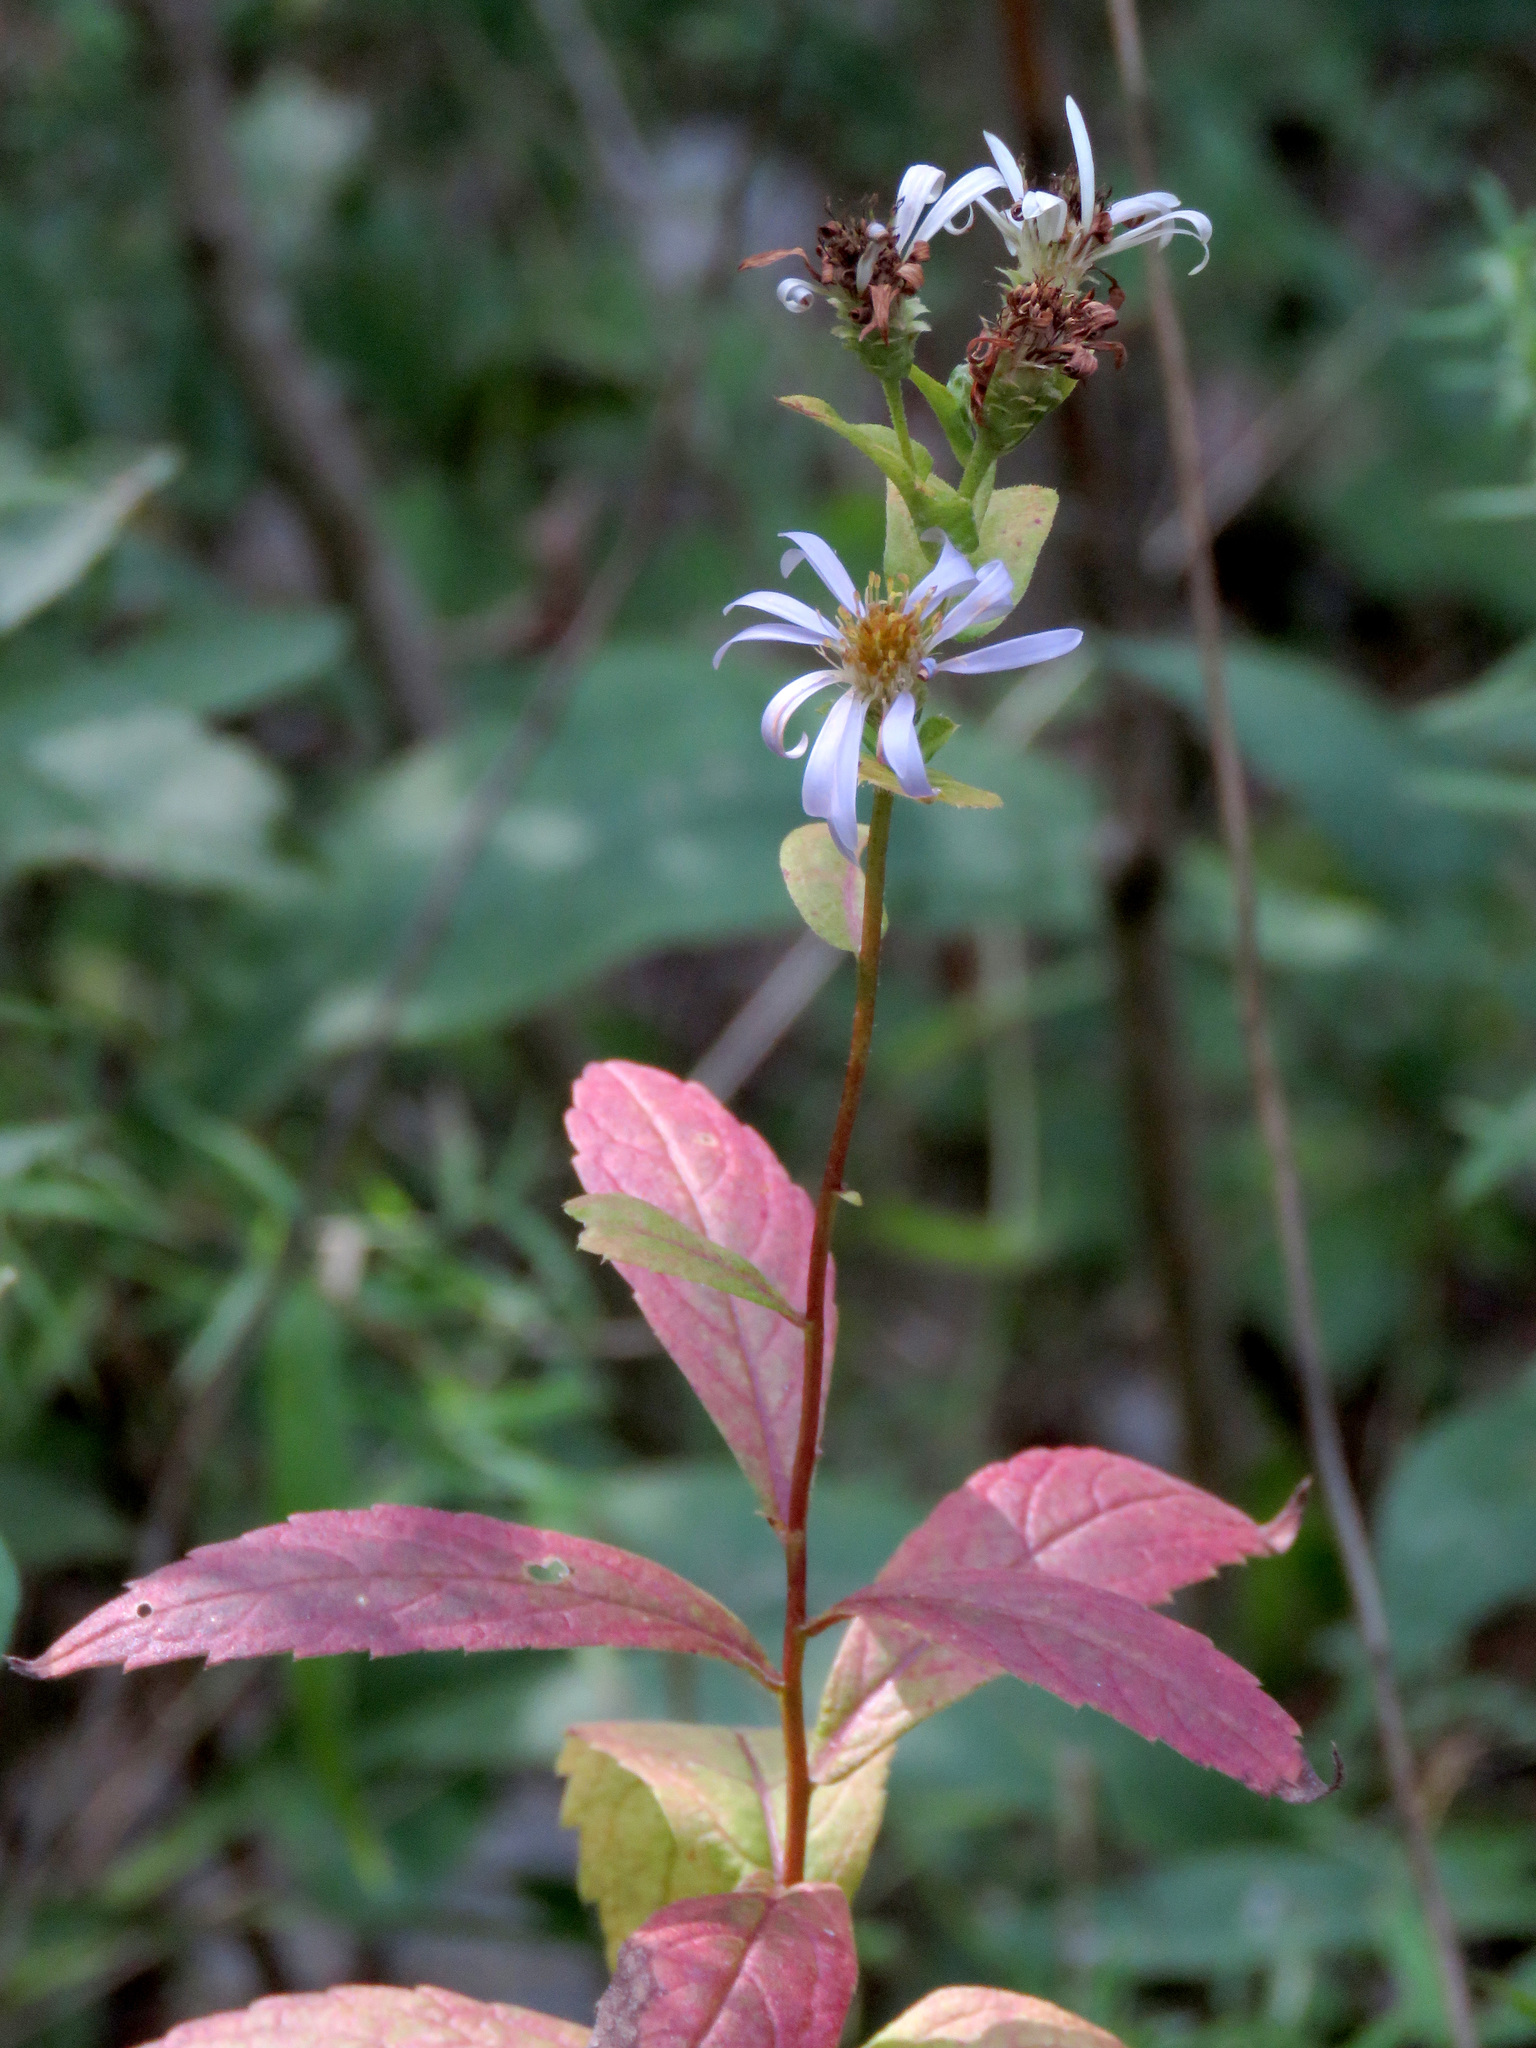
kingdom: Plantae
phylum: Tracheophyta
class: Magnoliopsida
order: Asterales
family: Asteraceae
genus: Eurybia
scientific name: Eurybia radula
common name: Low rough aster
